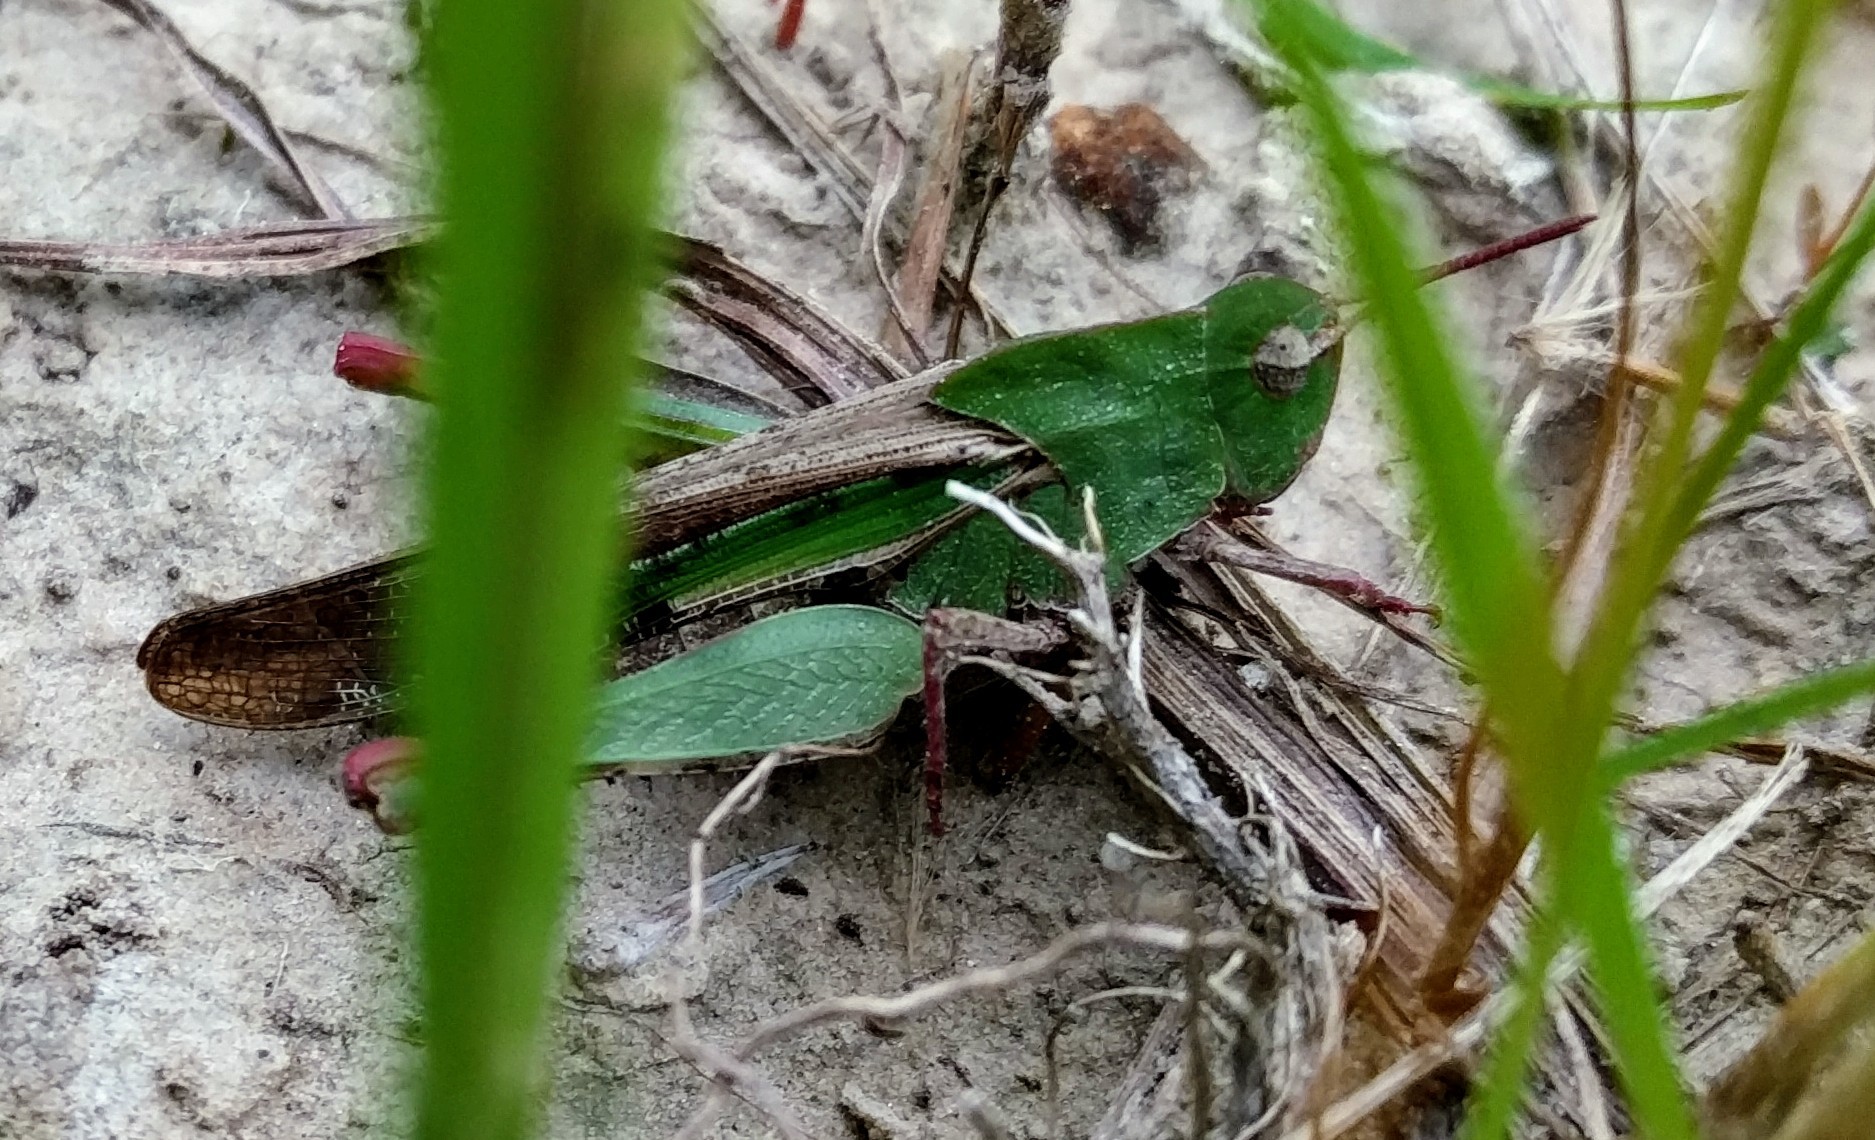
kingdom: Animalia
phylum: Arthropoda
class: Insecta
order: Orthoptera
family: Acrididae
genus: Chortophaga
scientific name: Chortophaga viridifasciata
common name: Green-striped grasshopper
